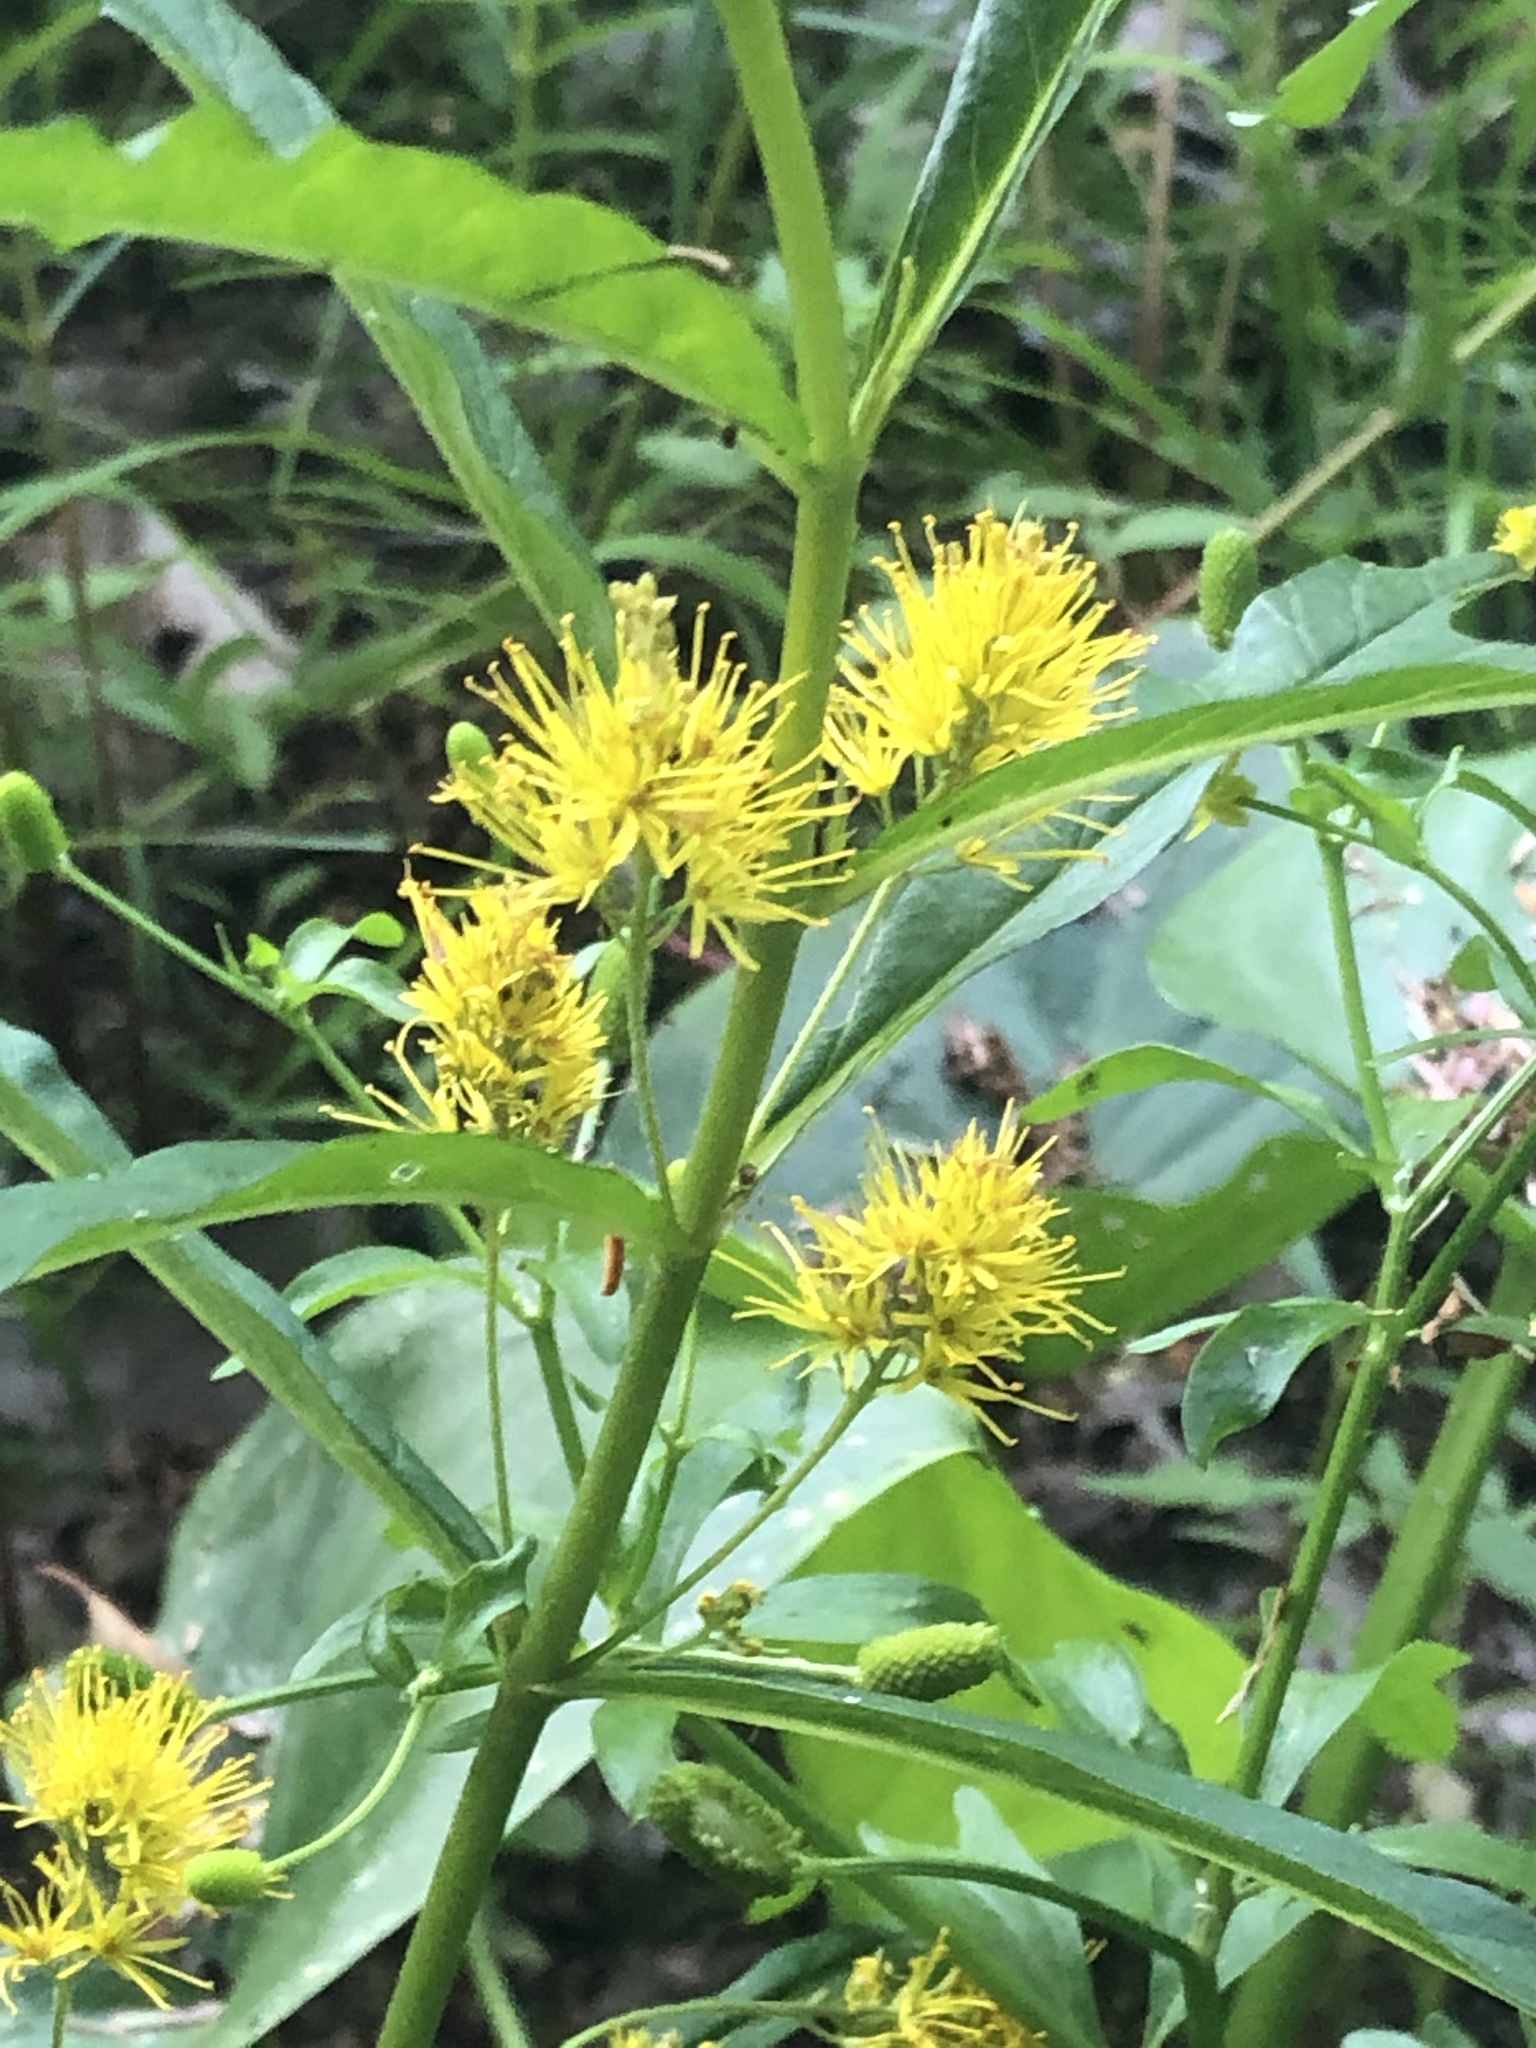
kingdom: Plantae
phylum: Tracheophyta
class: Magnoliopsida
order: Ericales
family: Primulaceae
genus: Lysimachia
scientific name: Lysimachia thyrsiflora
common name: Tufted loosestrife
